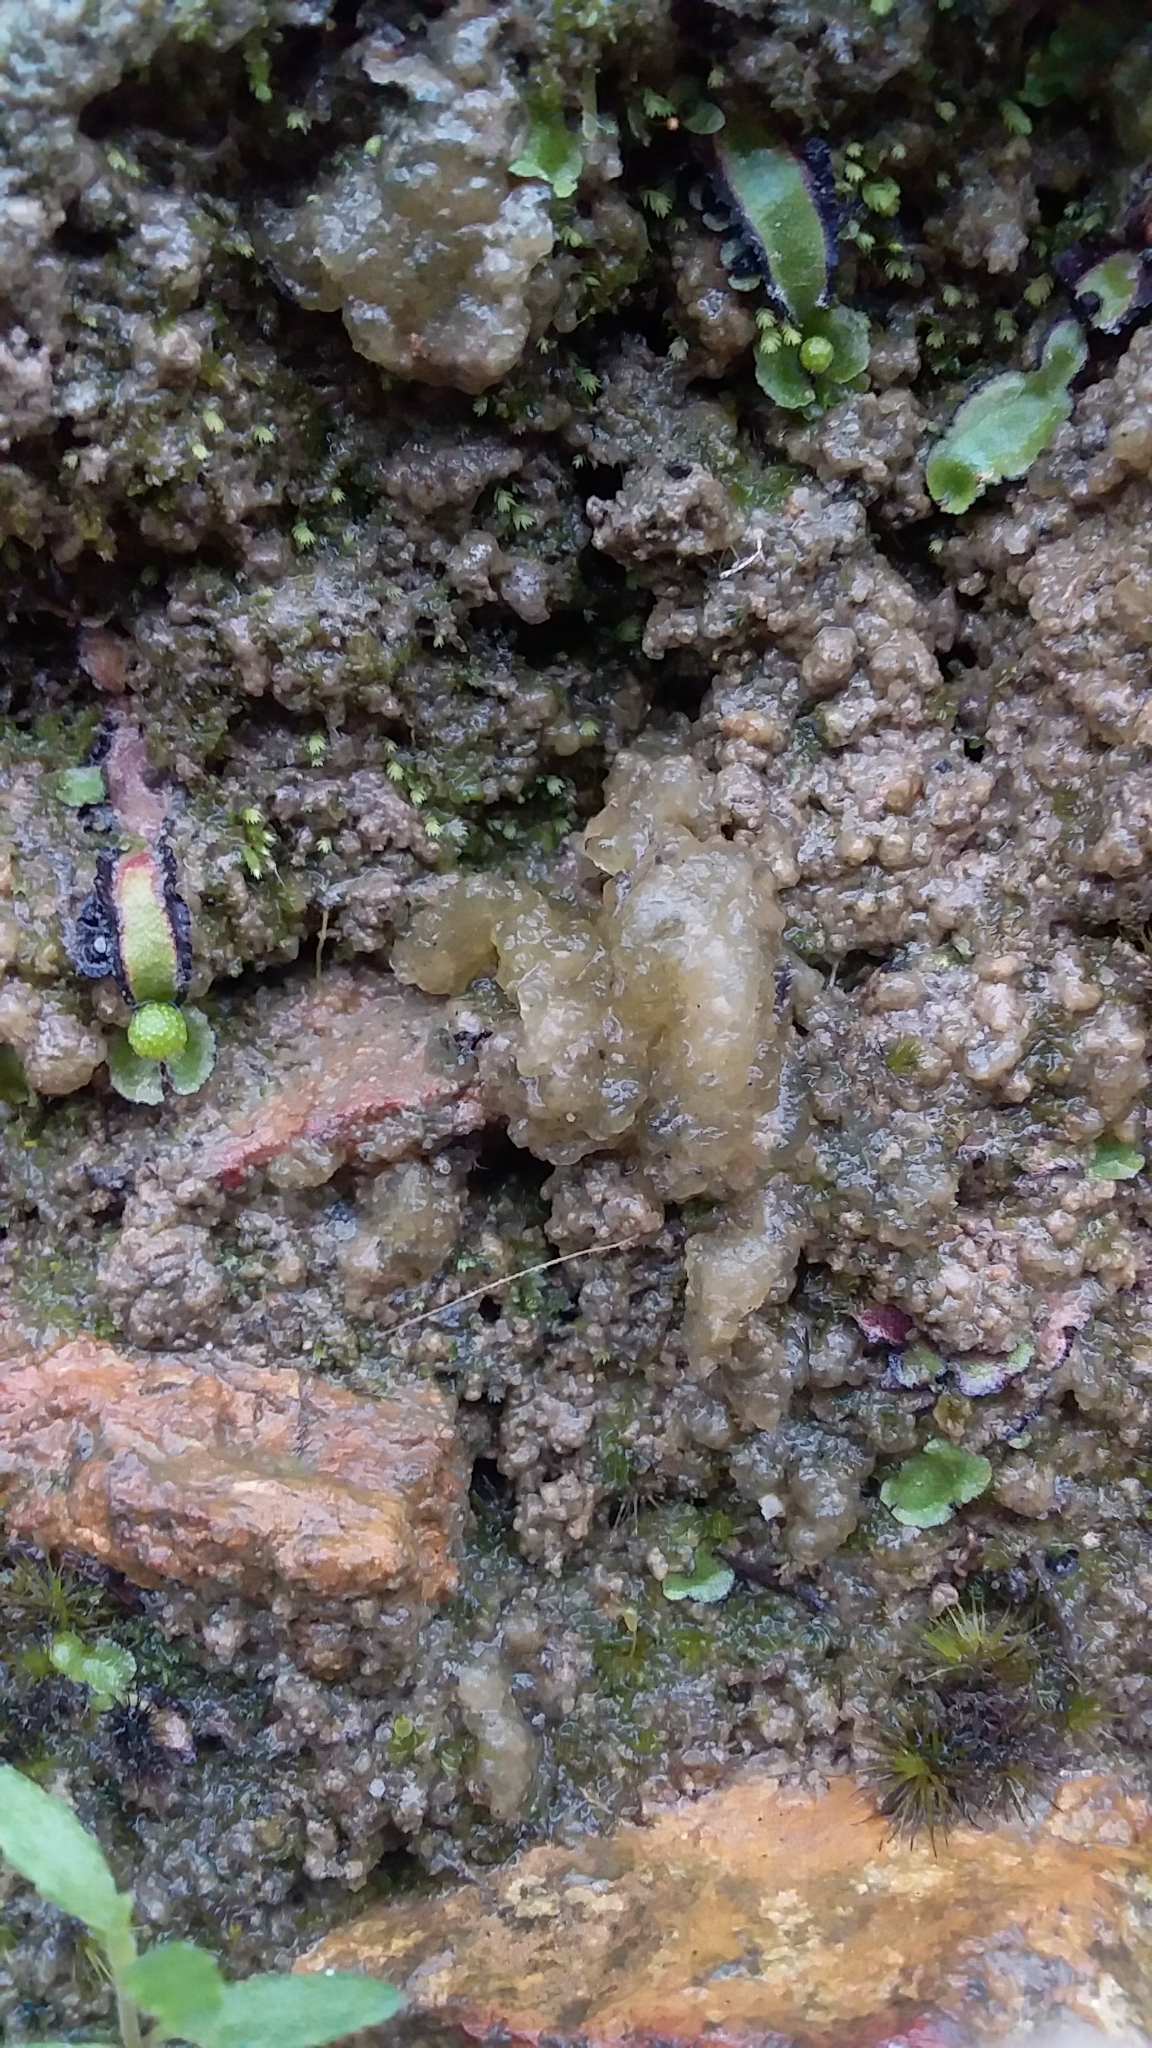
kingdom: Bacteria
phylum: Cyanobacteria
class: Cyanobacteriia
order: Cyanobacteriales
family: Nostocaceae
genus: Nostoc
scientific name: Nostoc commune
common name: Star jelly
